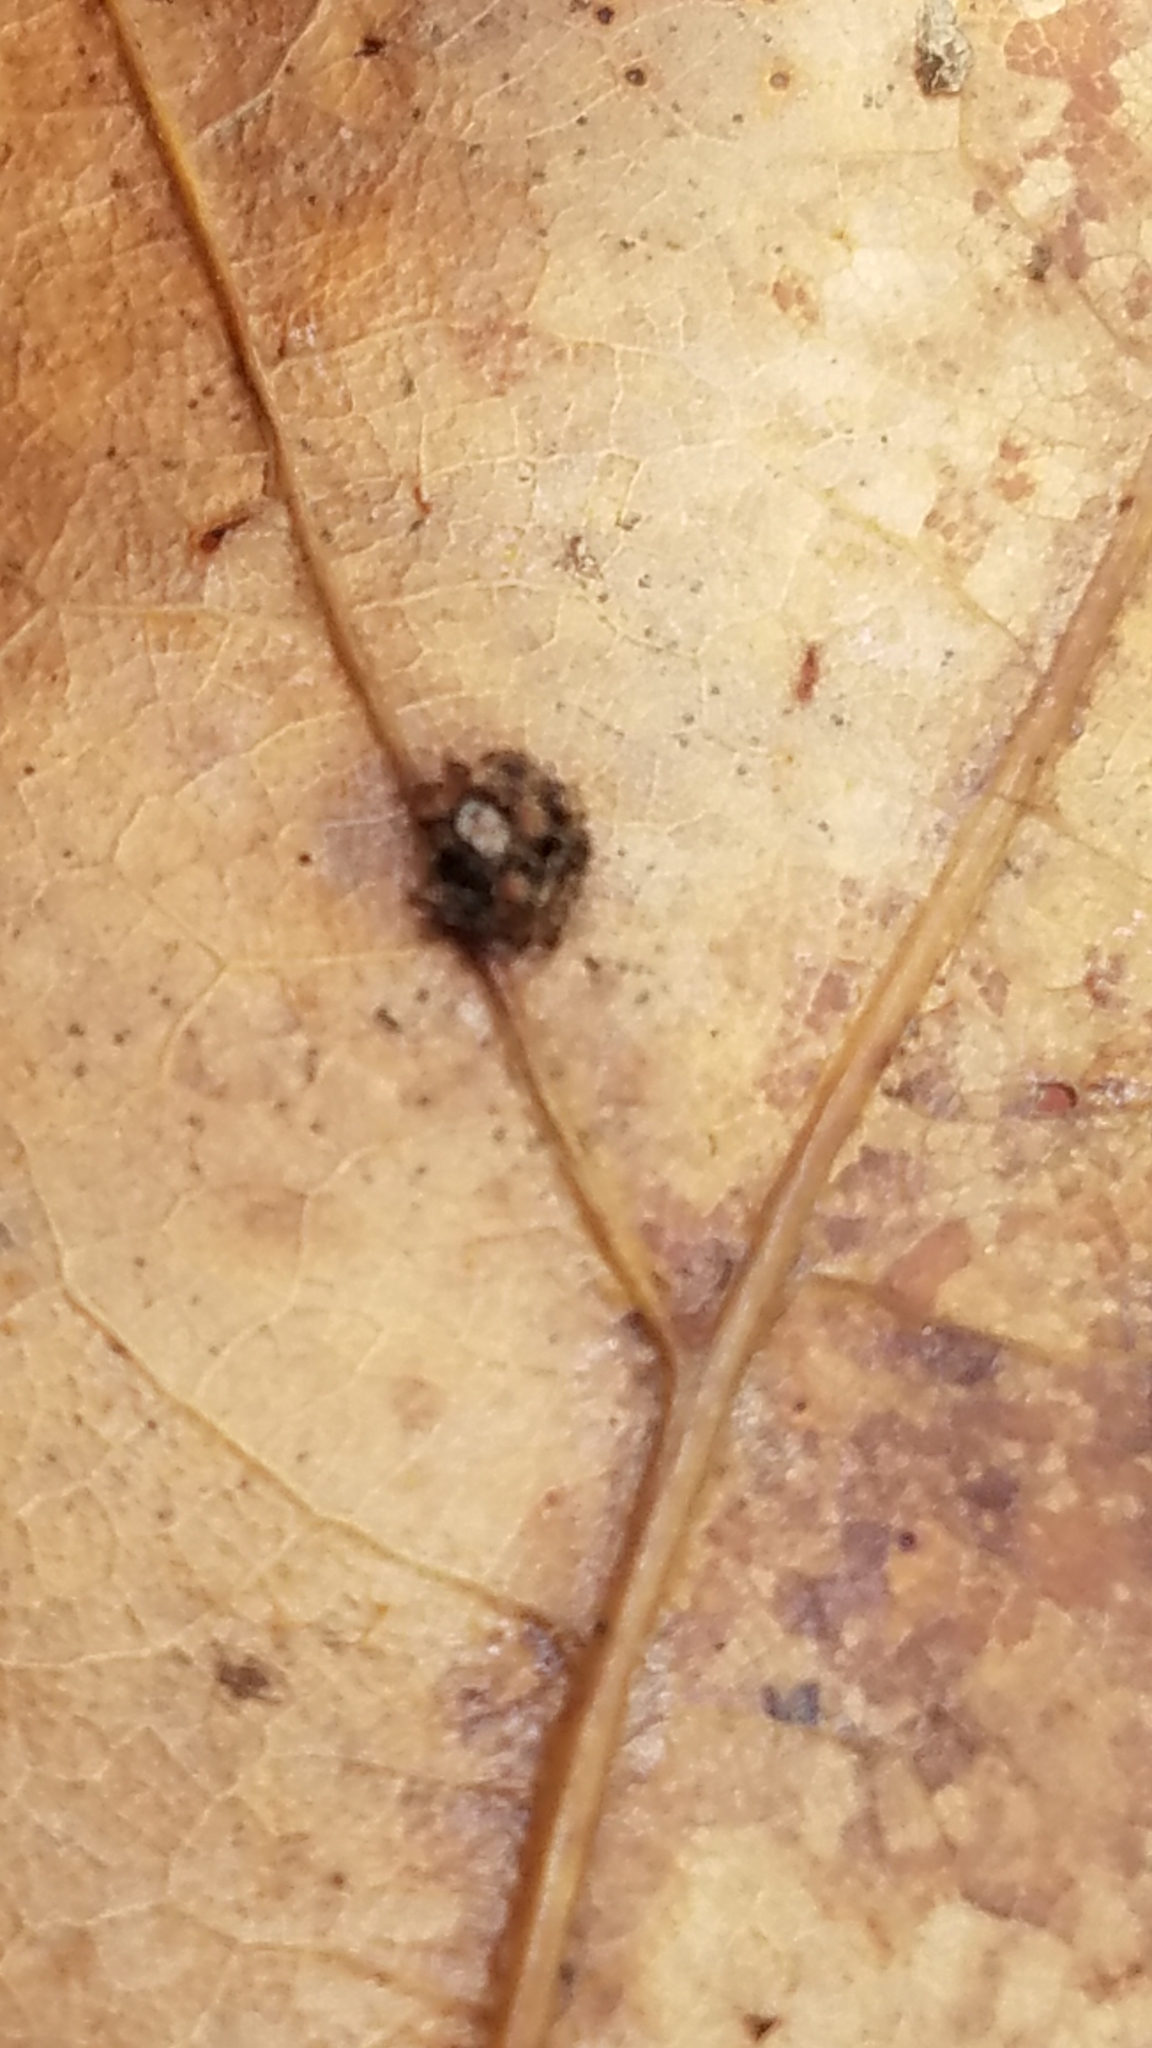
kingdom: Animalia
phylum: Arthropoda
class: Insecta
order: Diptera
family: Cecidomyiidae
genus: Polystepha
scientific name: Polystepha globosa
